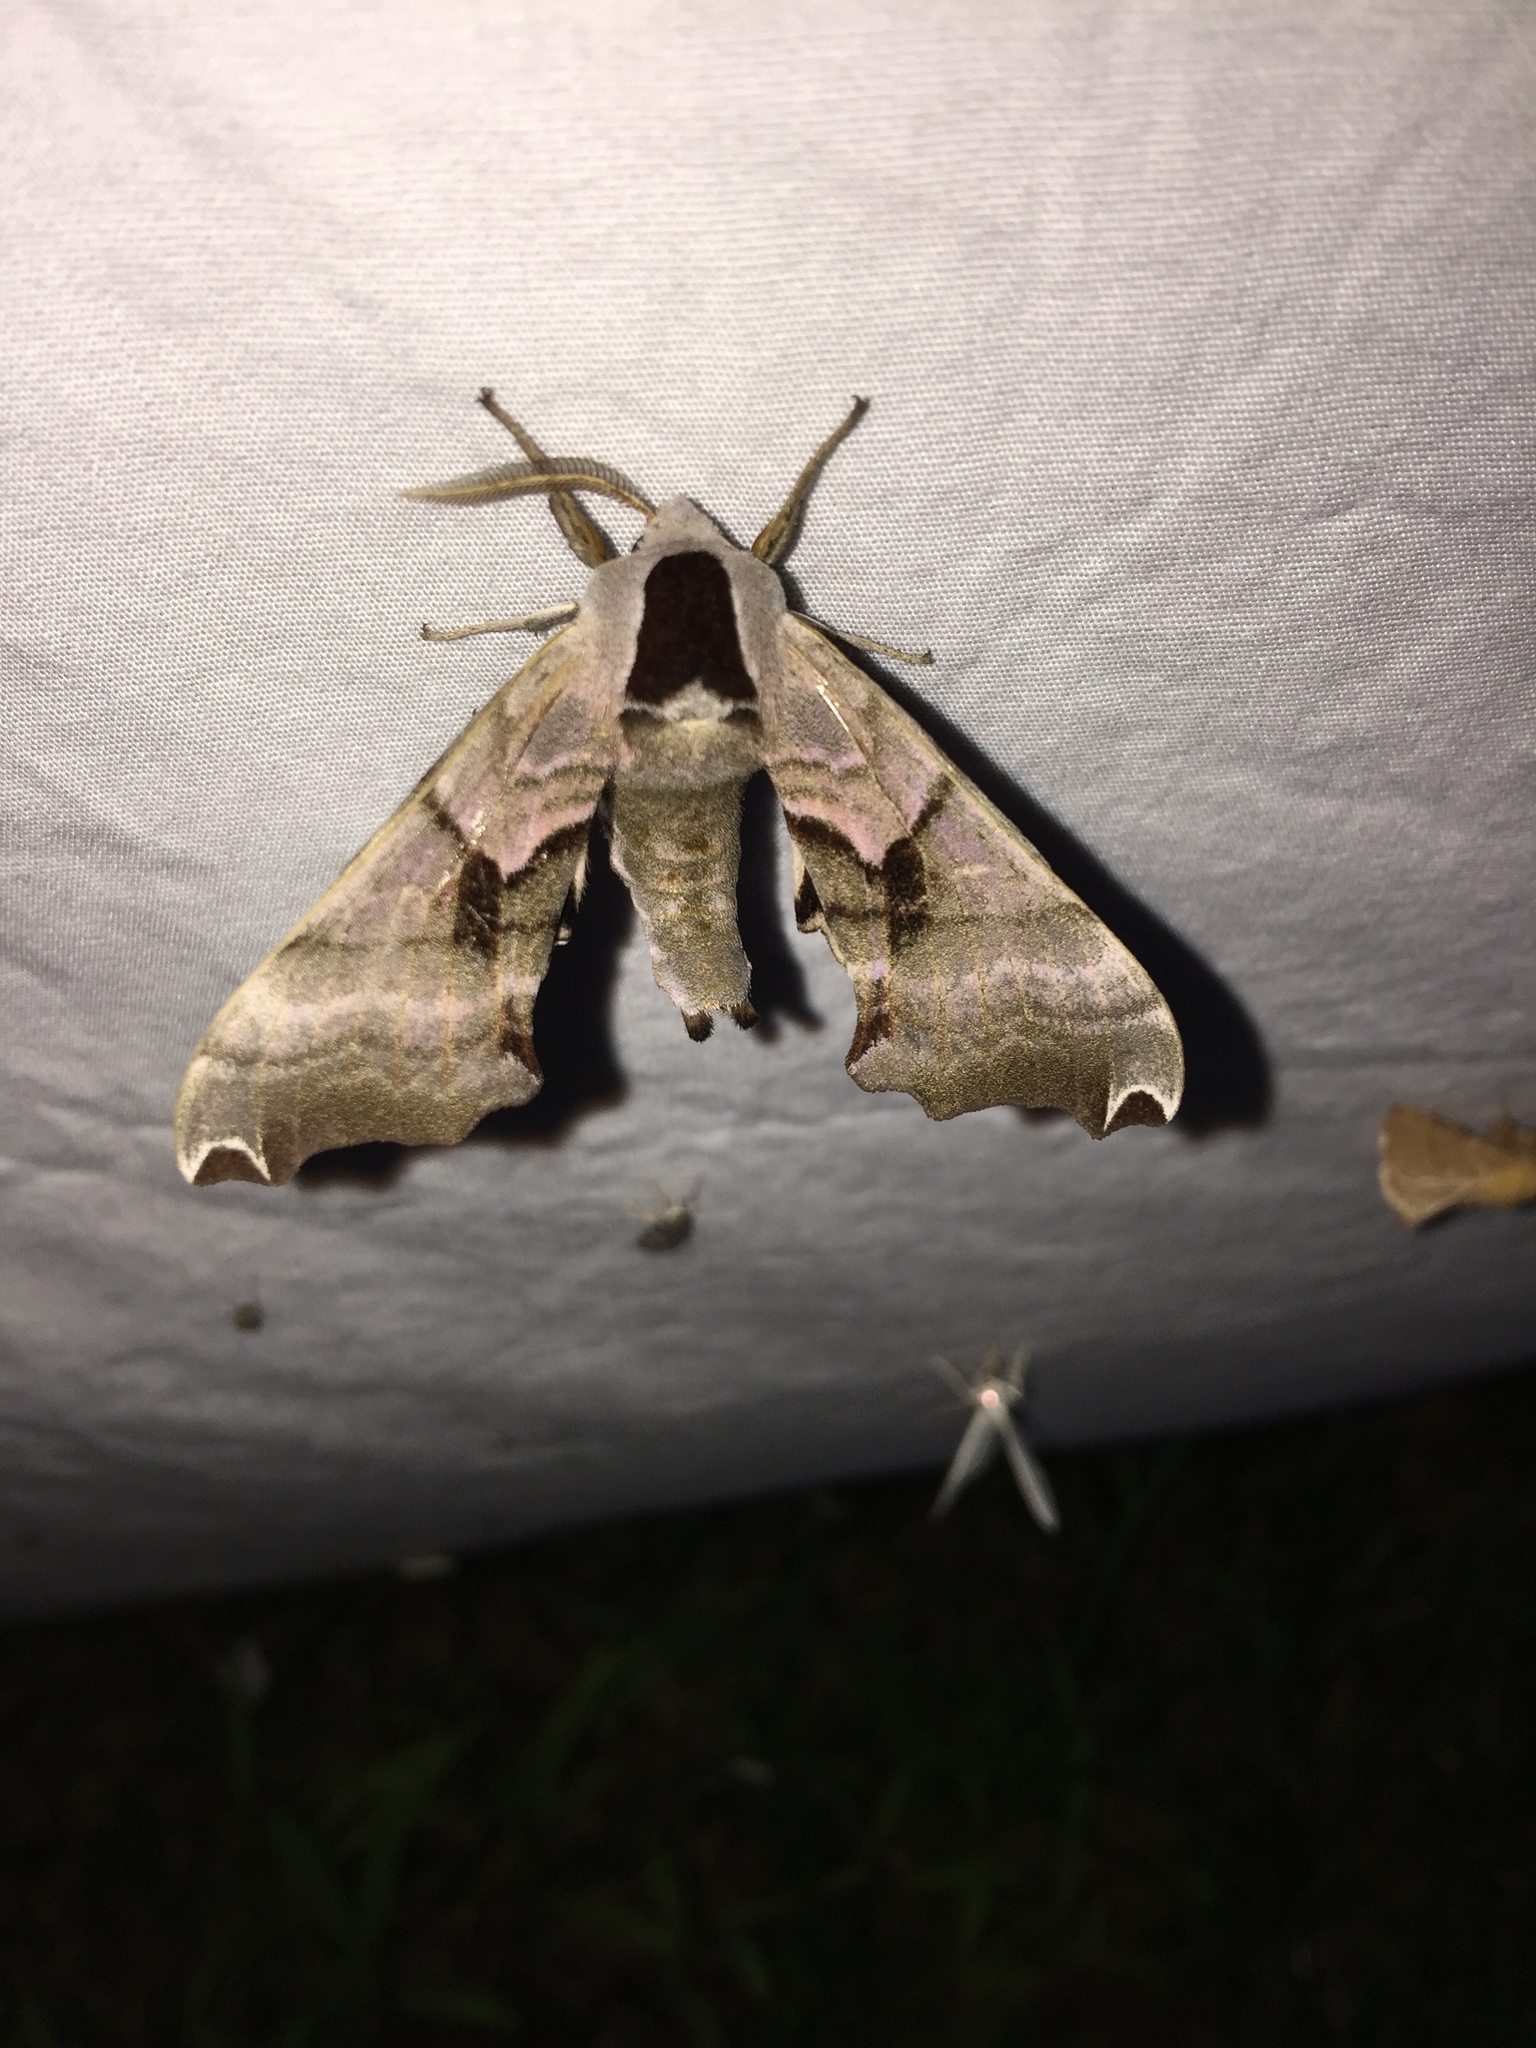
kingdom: Animalia
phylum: Arthropoda
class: Insecta
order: Lepidoptera
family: Sphingidae
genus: Smerinthus
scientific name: Smerinthus jamaicensis
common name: Twin spotted sphinx
